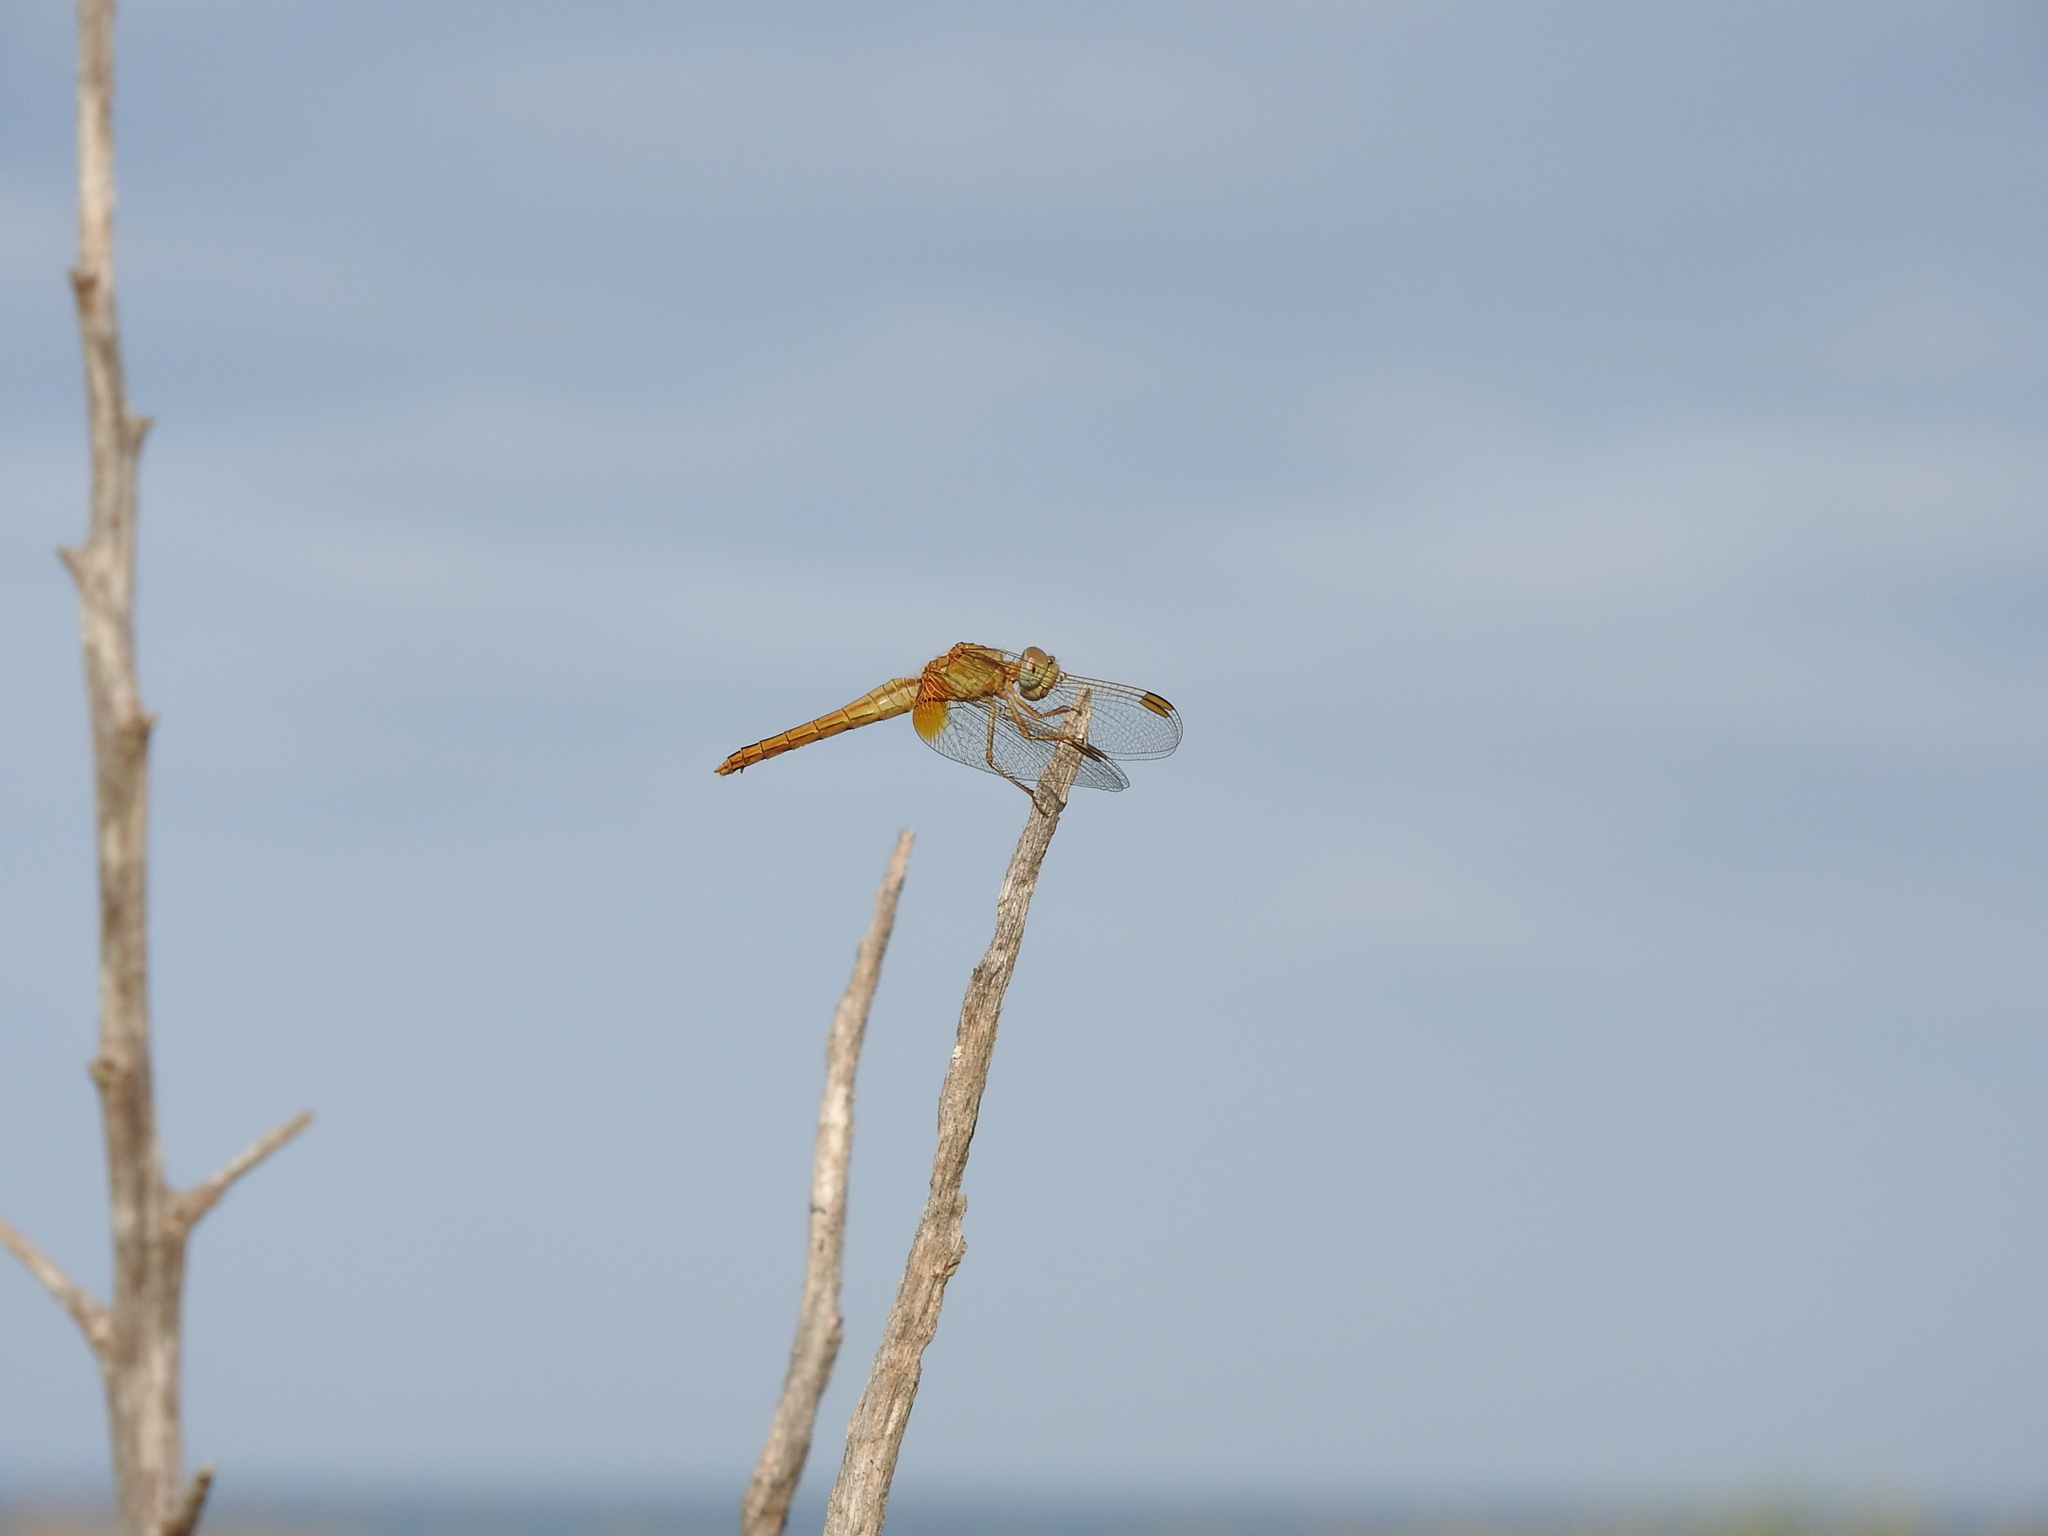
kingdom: Animalia
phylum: Arthropoda
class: Insecta
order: Odonata
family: Libellulidae
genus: Crocothemis
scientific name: Crocothemis erythraea
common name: Scarlet dragonfly
